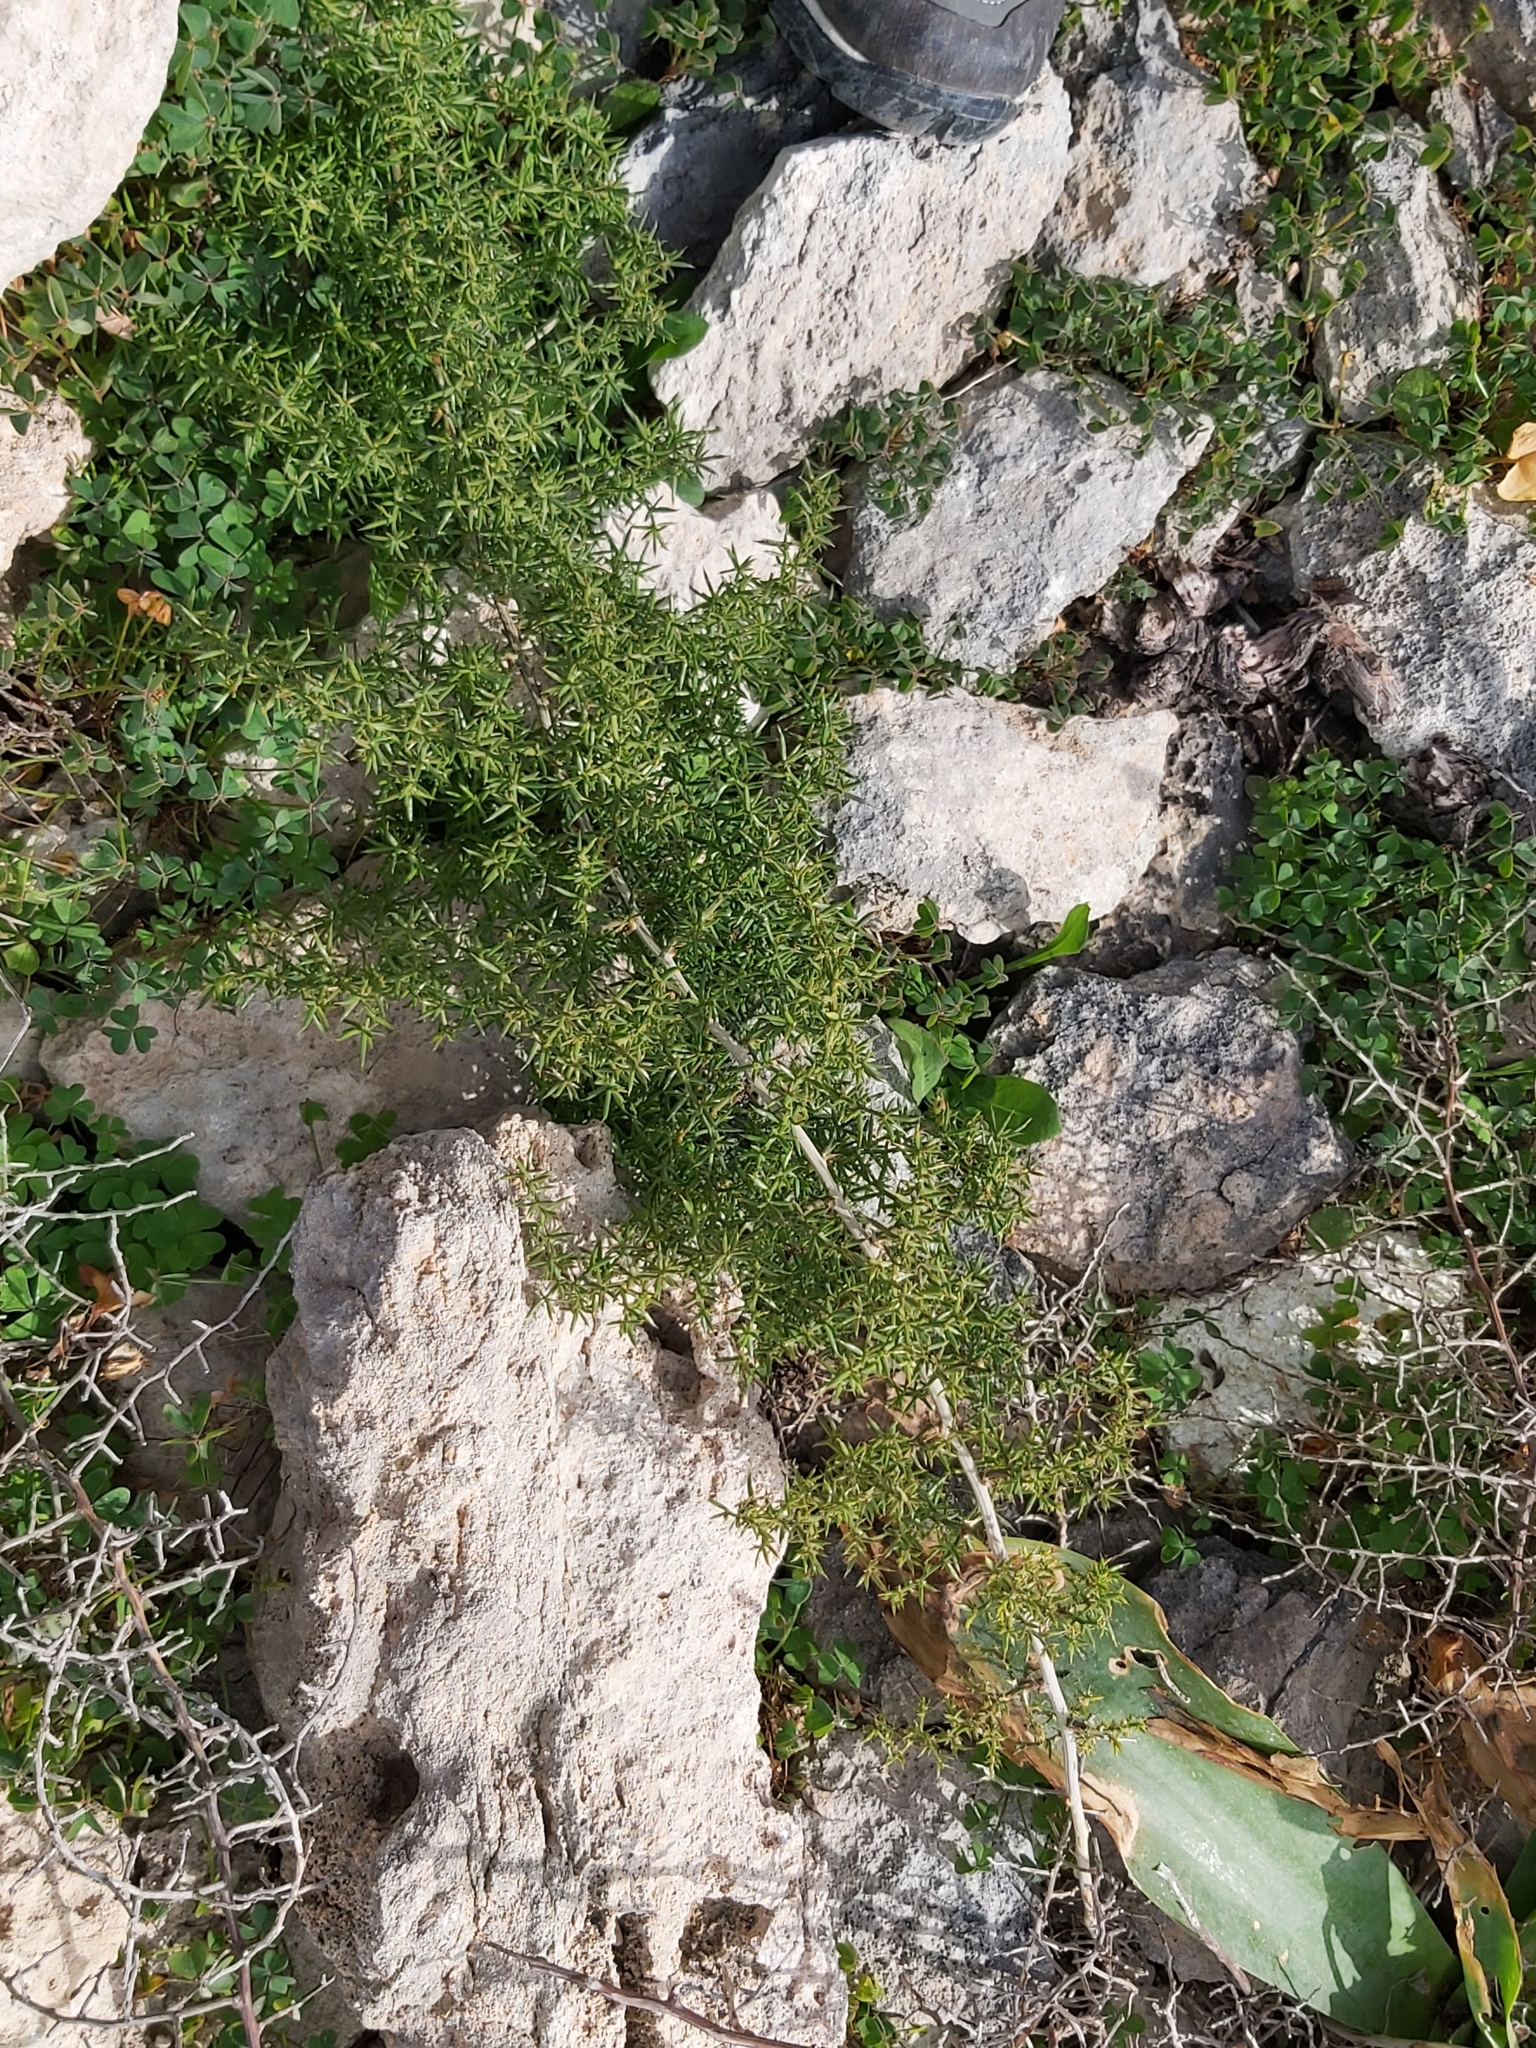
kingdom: Plantae
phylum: Tracheophyta
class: Liliopsida
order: Asparagales
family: Asparagaceae
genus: Asparagus
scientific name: Asparagus acutifolius
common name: Wild asparagus
